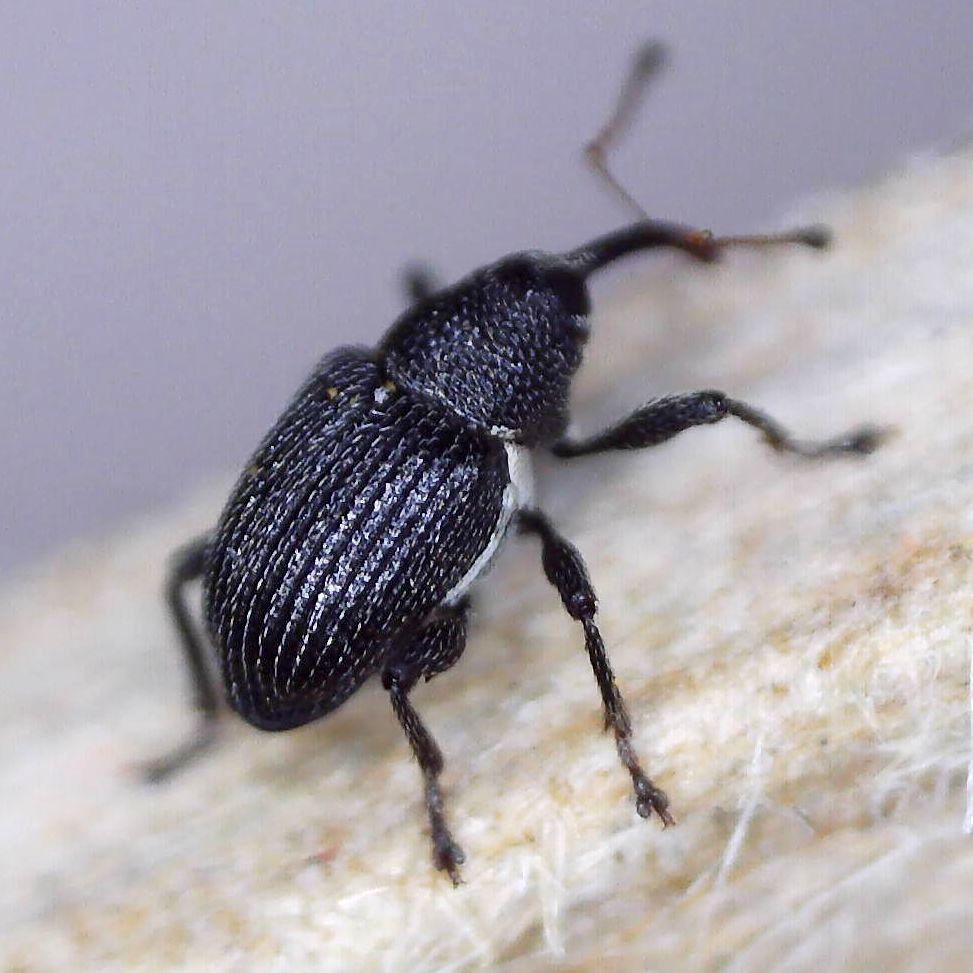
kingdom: Animalia
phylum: Arthropoda
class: Insecta
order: Coleoptera
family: Curculionidae
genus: Archarius
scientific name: Archarius pyrrhoceras
